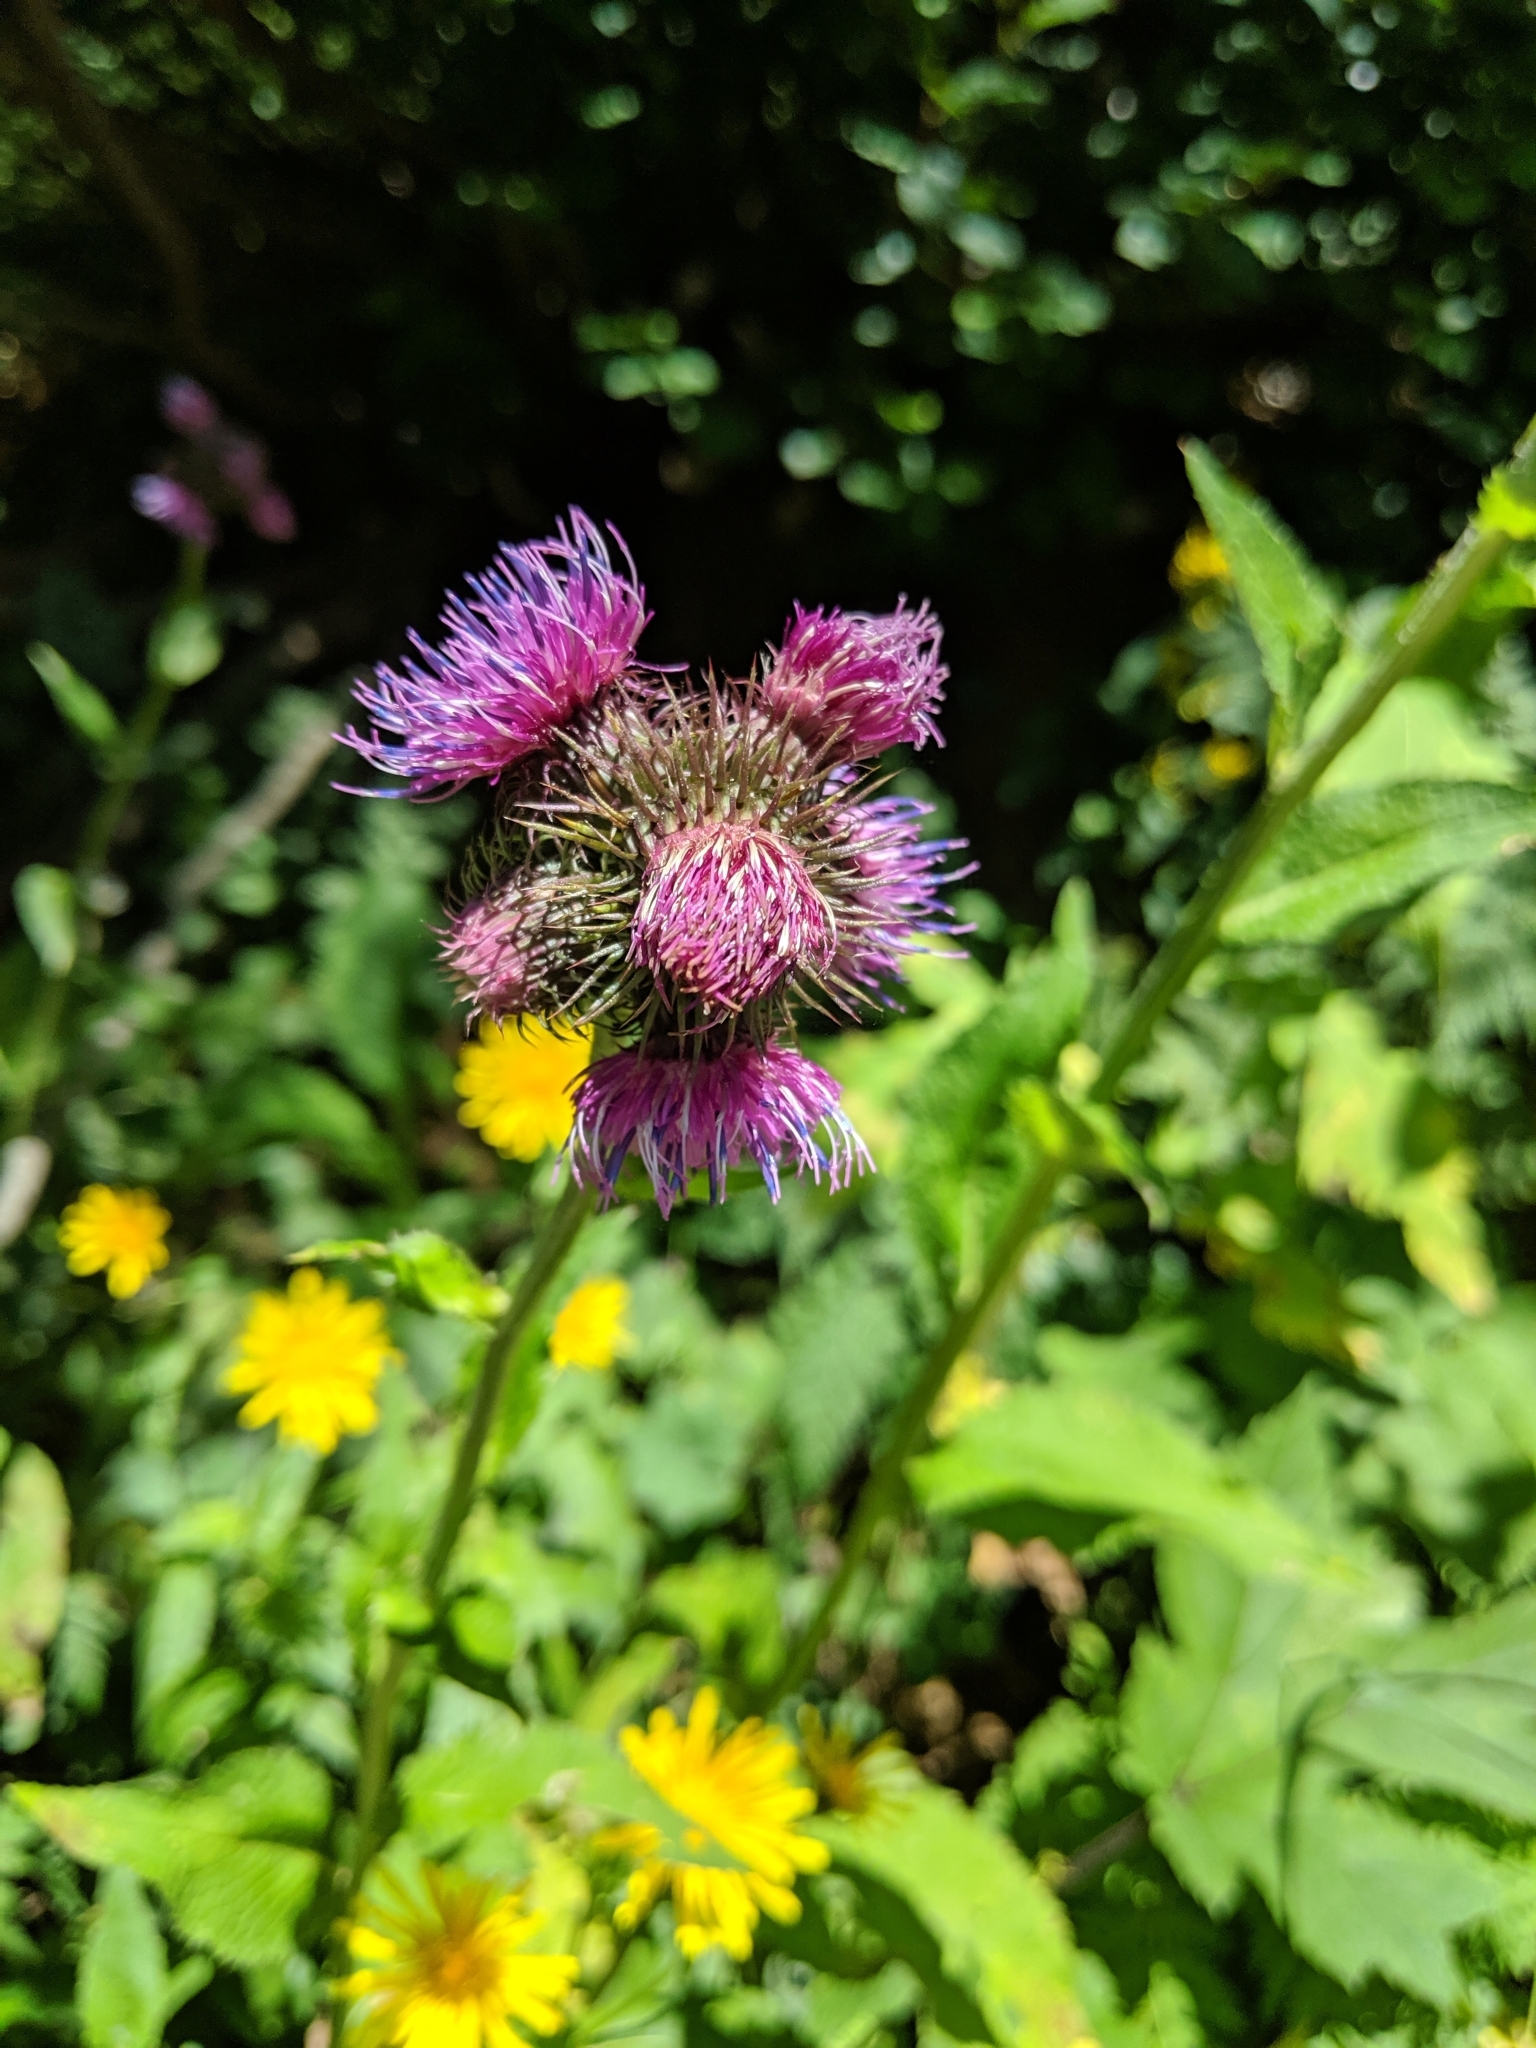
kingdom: Plantae
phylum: Tracheophyta
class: Magnoliopsida
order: Asterales
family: Asteraceae
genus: Carduus
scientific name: Carduus personata
